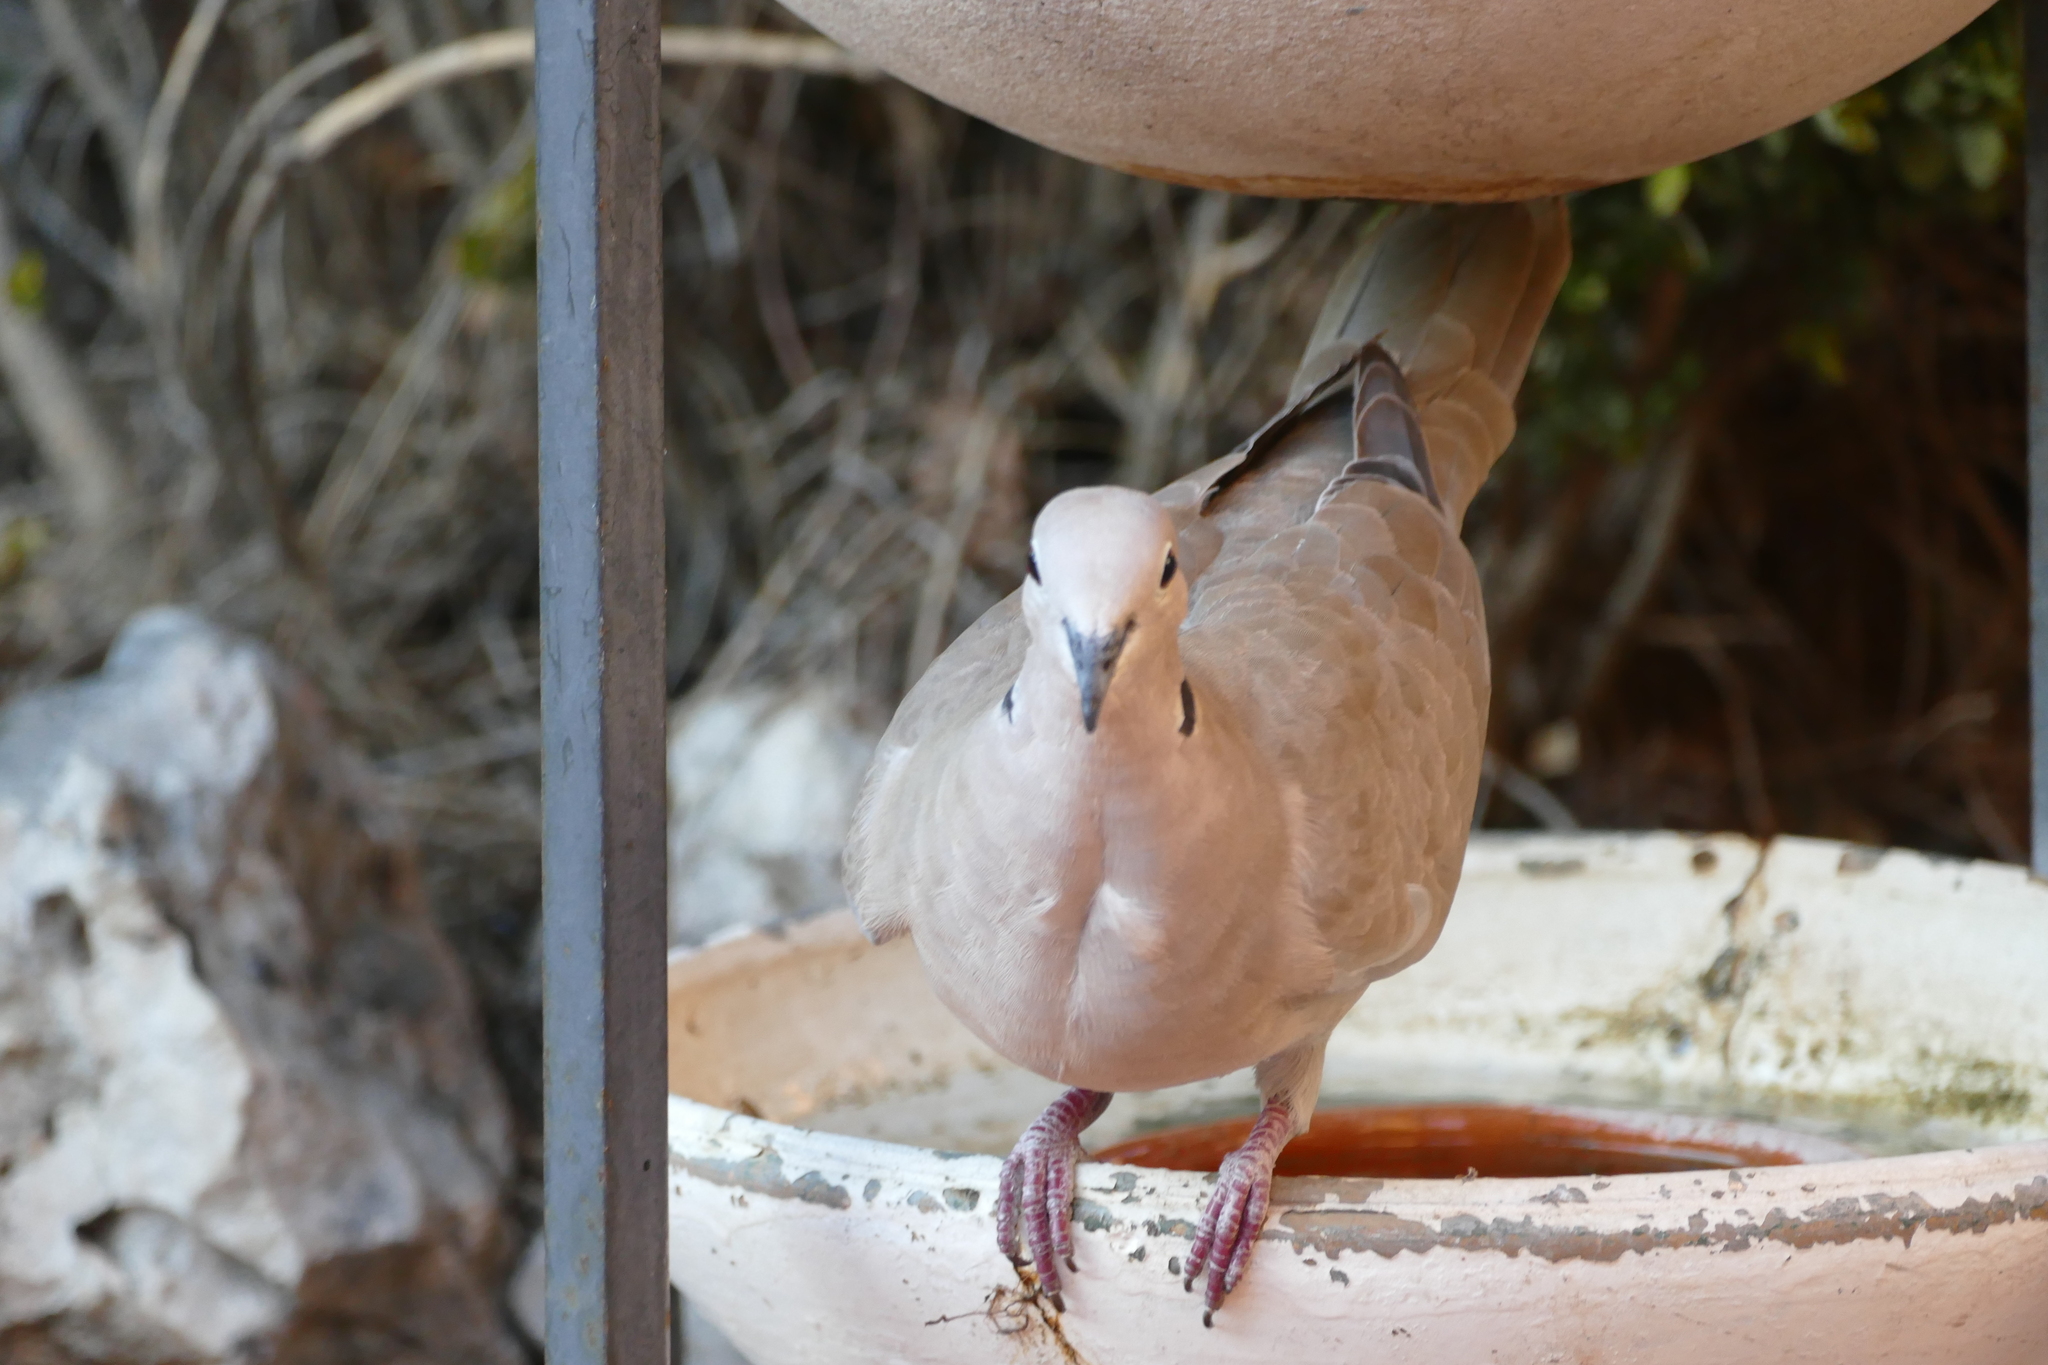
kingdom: Animalia
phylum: Chordata
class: Aves
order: Columbiformes
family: Columbidae
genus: Streptopelia
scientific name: Streptopelia decaocto
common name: Eurasian collared dove
